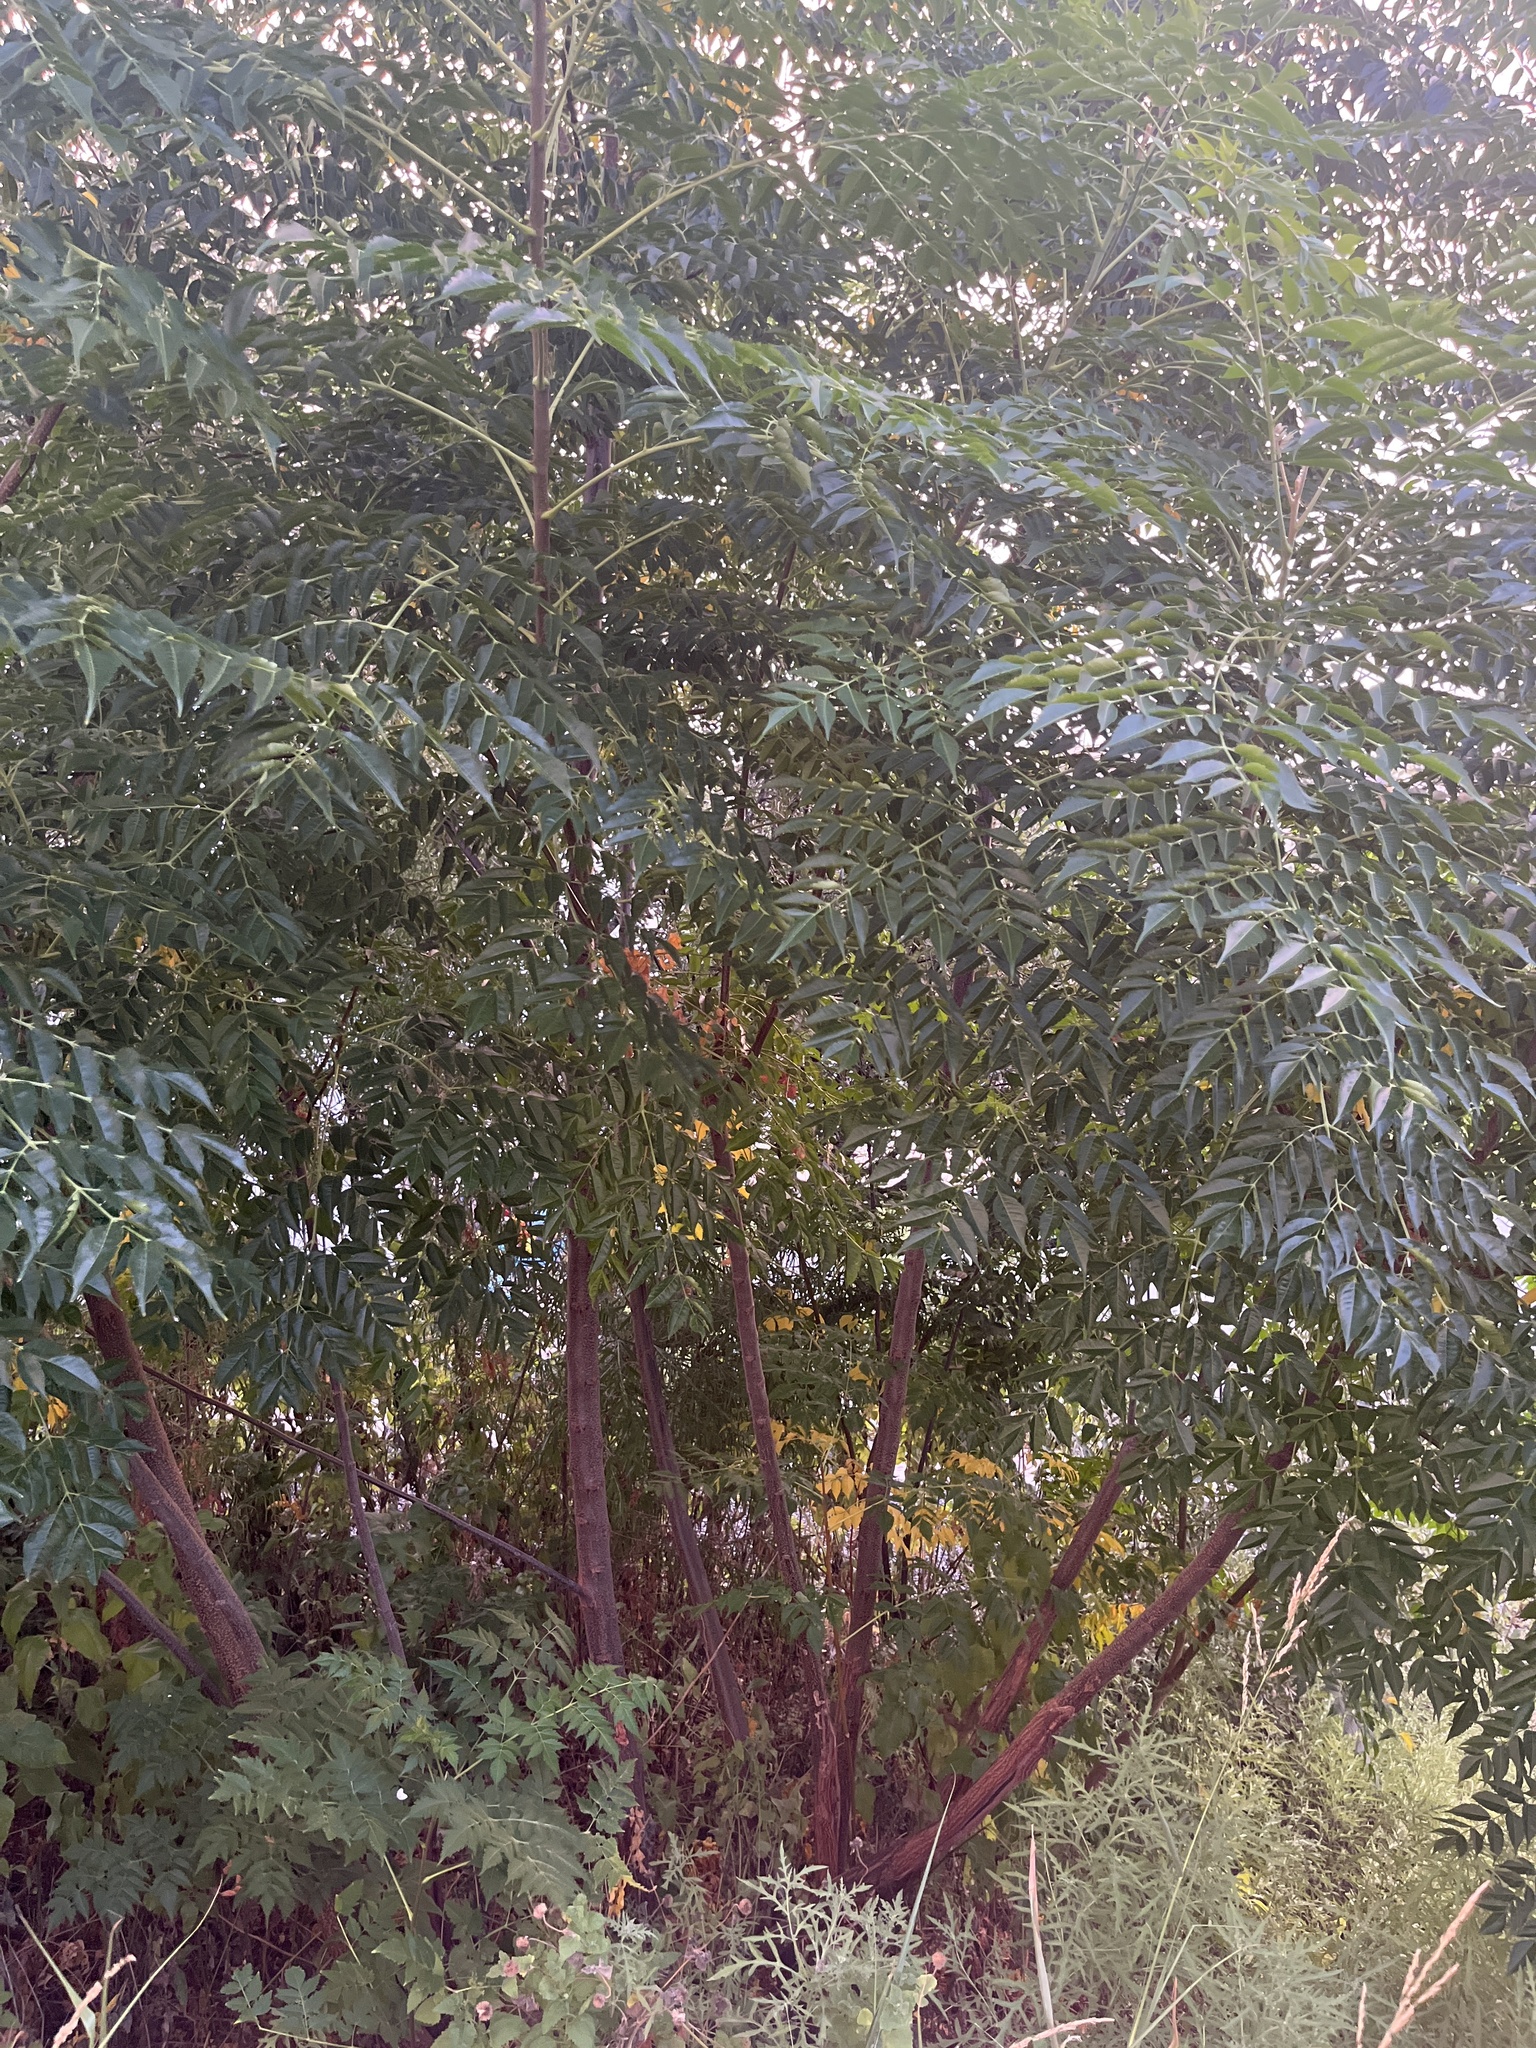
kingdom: Plantae
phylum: Tracheophyta
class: Magnoliopsida
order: Sapindales
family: Meliaceae
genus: Melia
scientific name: Melia azedarach
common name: Chinaberrytree
